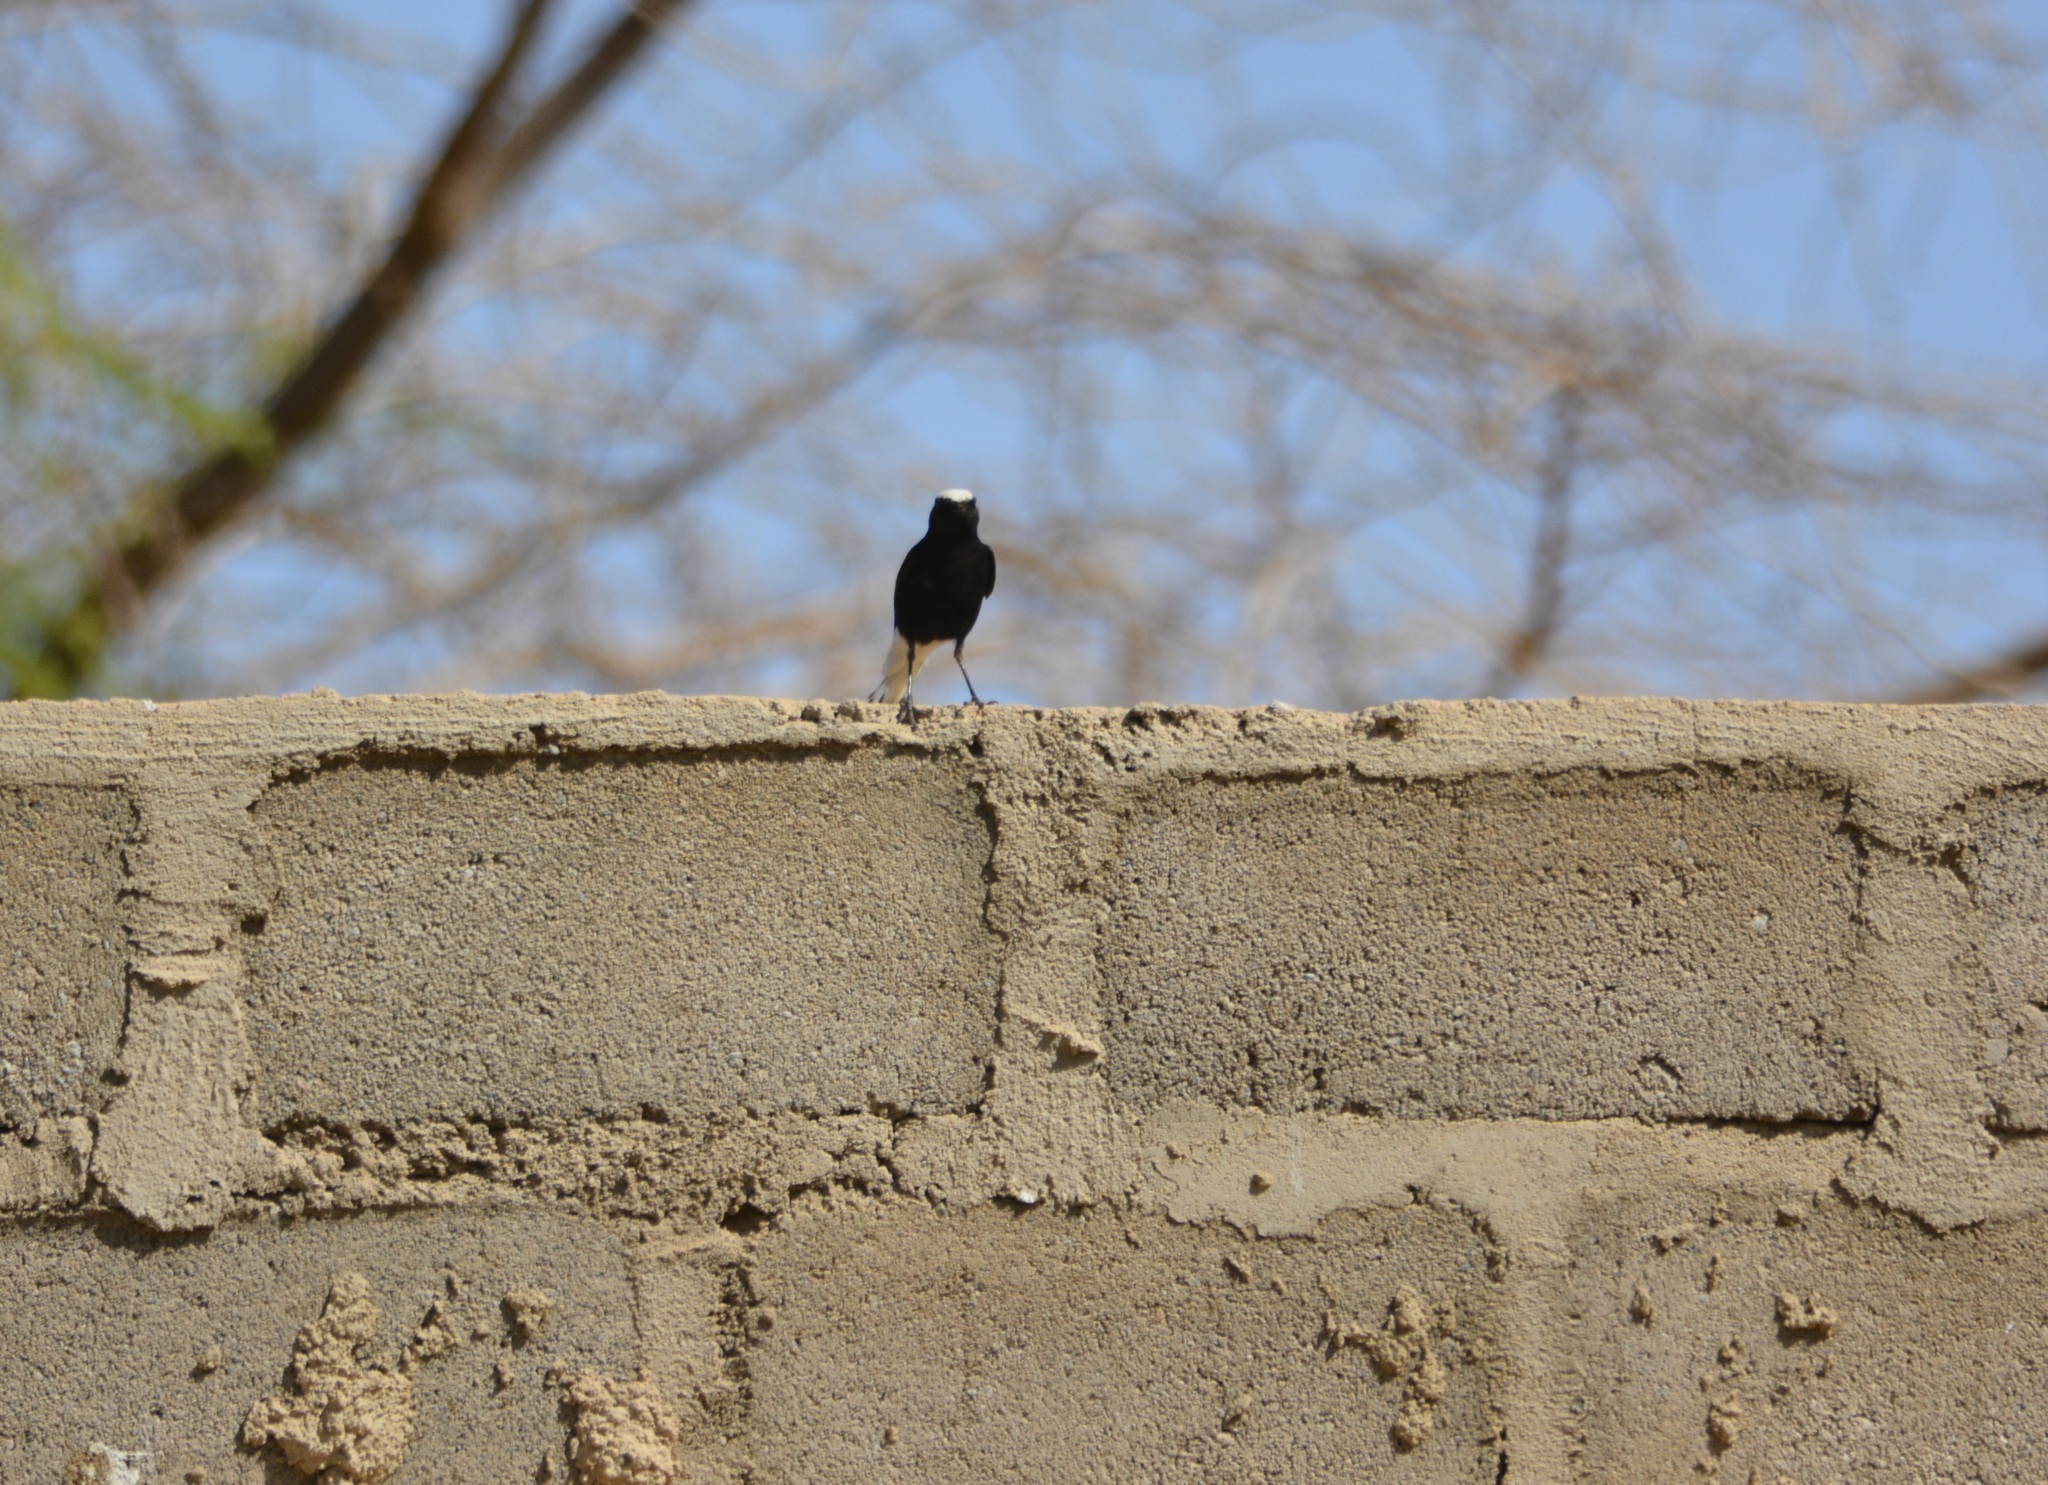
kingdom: Animalia
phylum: Chordata
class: Aves
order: Passeriformes
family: Muscicapidae
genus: Oenanthe
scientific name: Oenanthe leucopyga
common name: White-crowned wheatear
